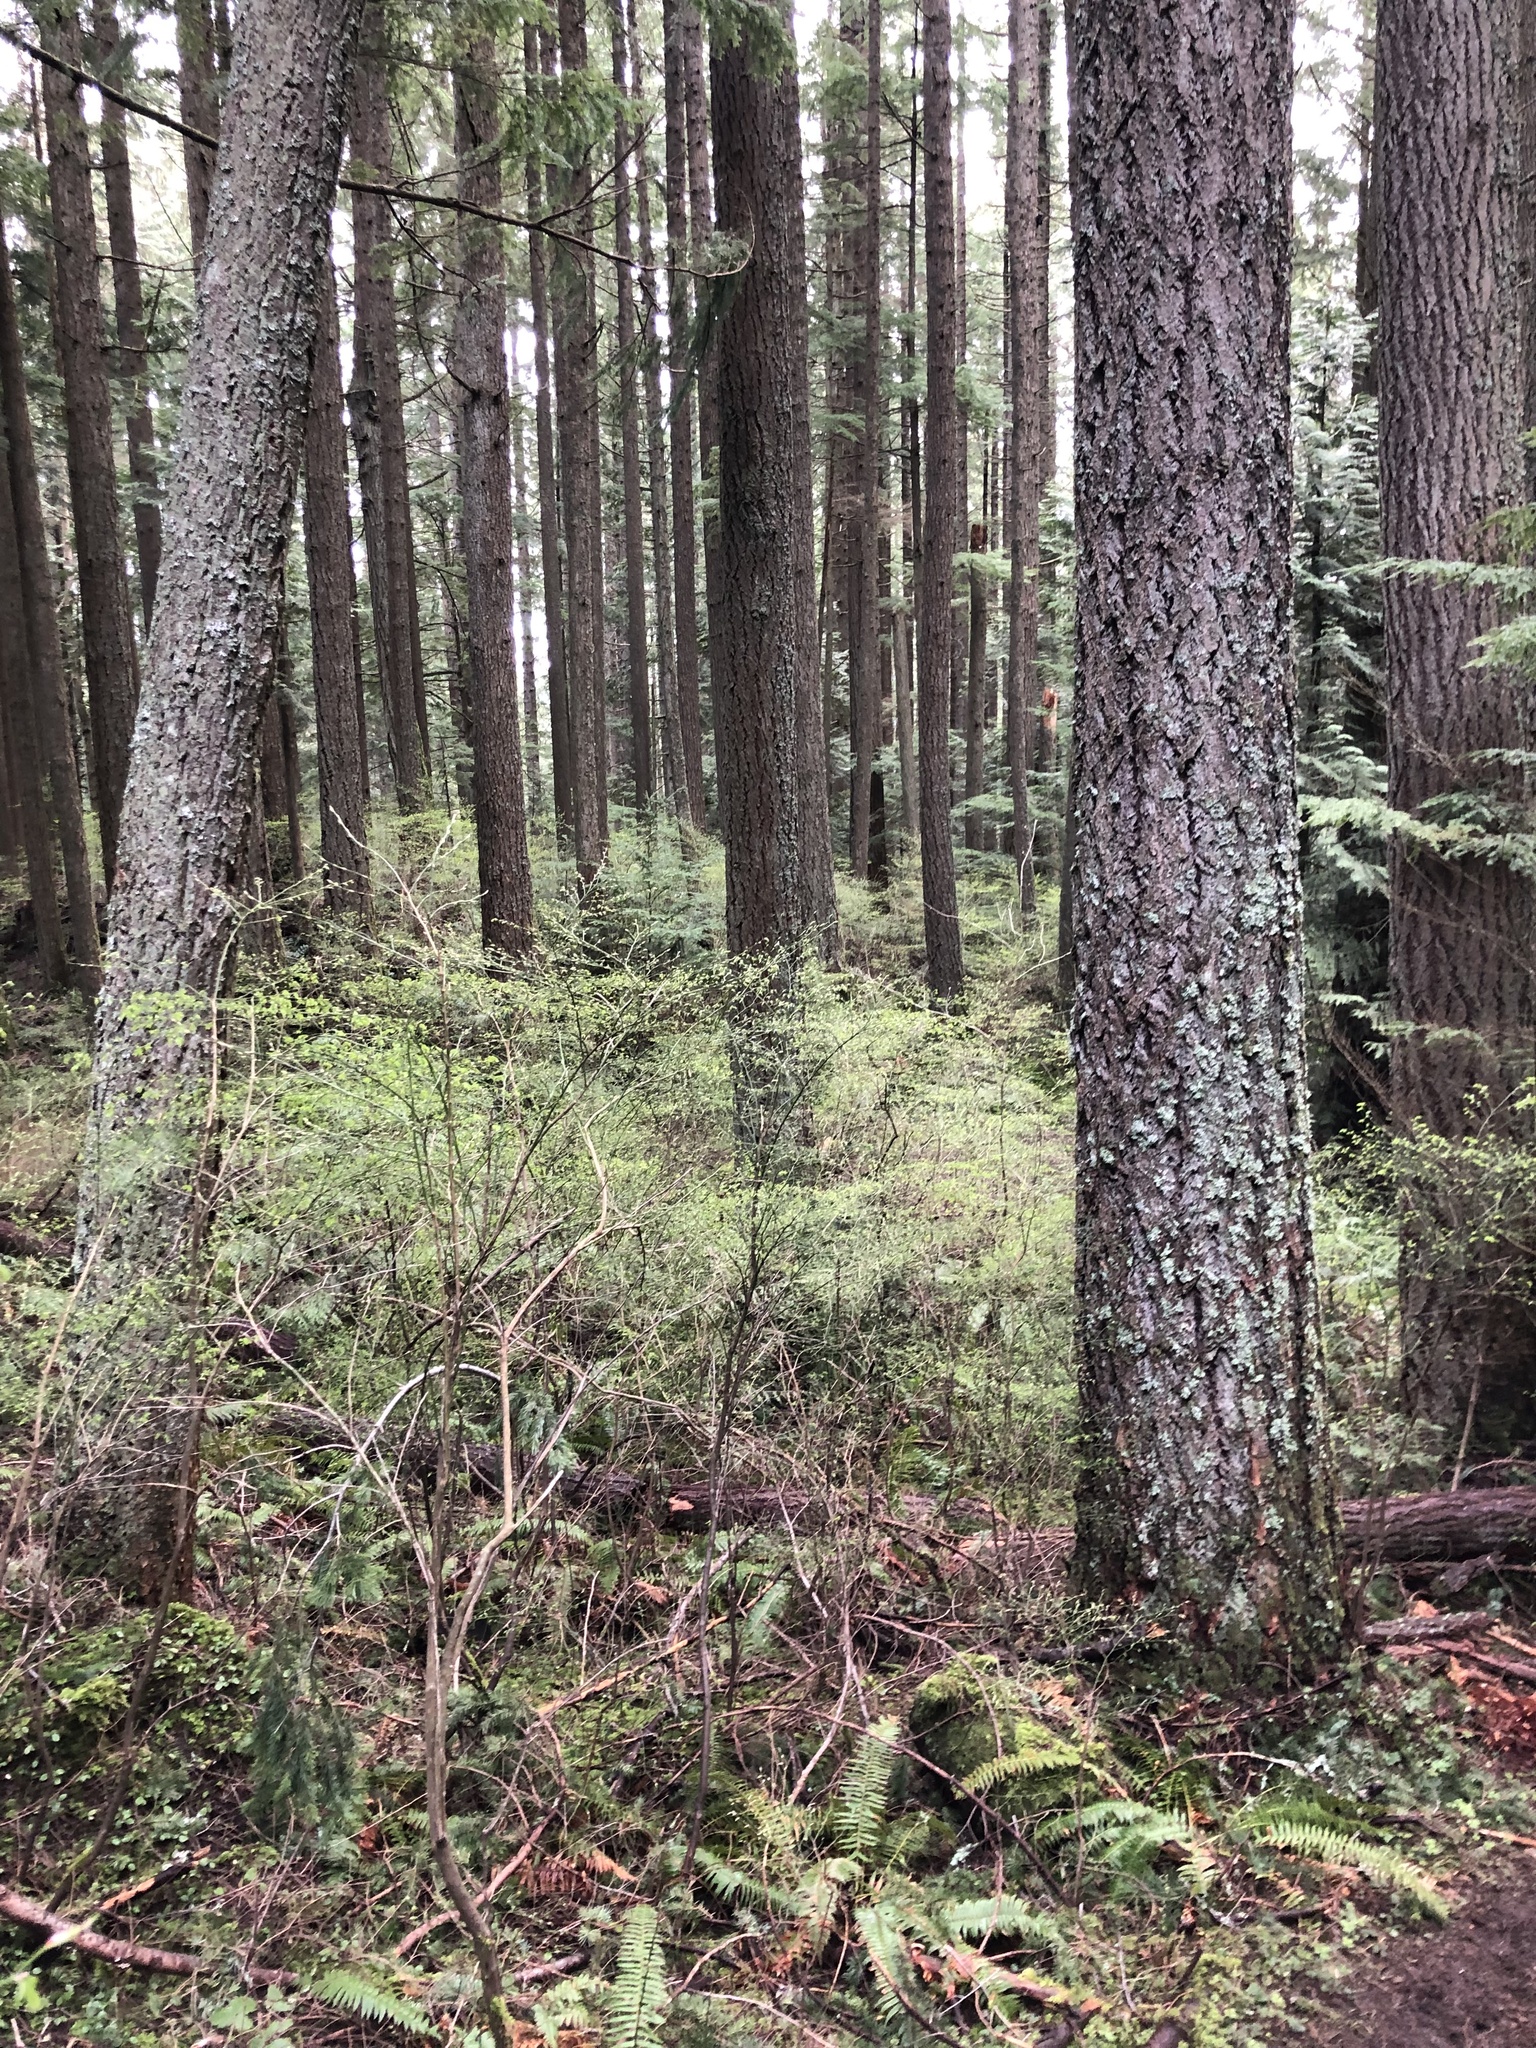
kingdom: Plantae
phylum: Tracheophyta
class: Pinopsida
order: Pinales
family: Pinaceae
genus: Pseudotsuga
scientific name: Pseudotsuga menziesii
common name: Douglas fir
